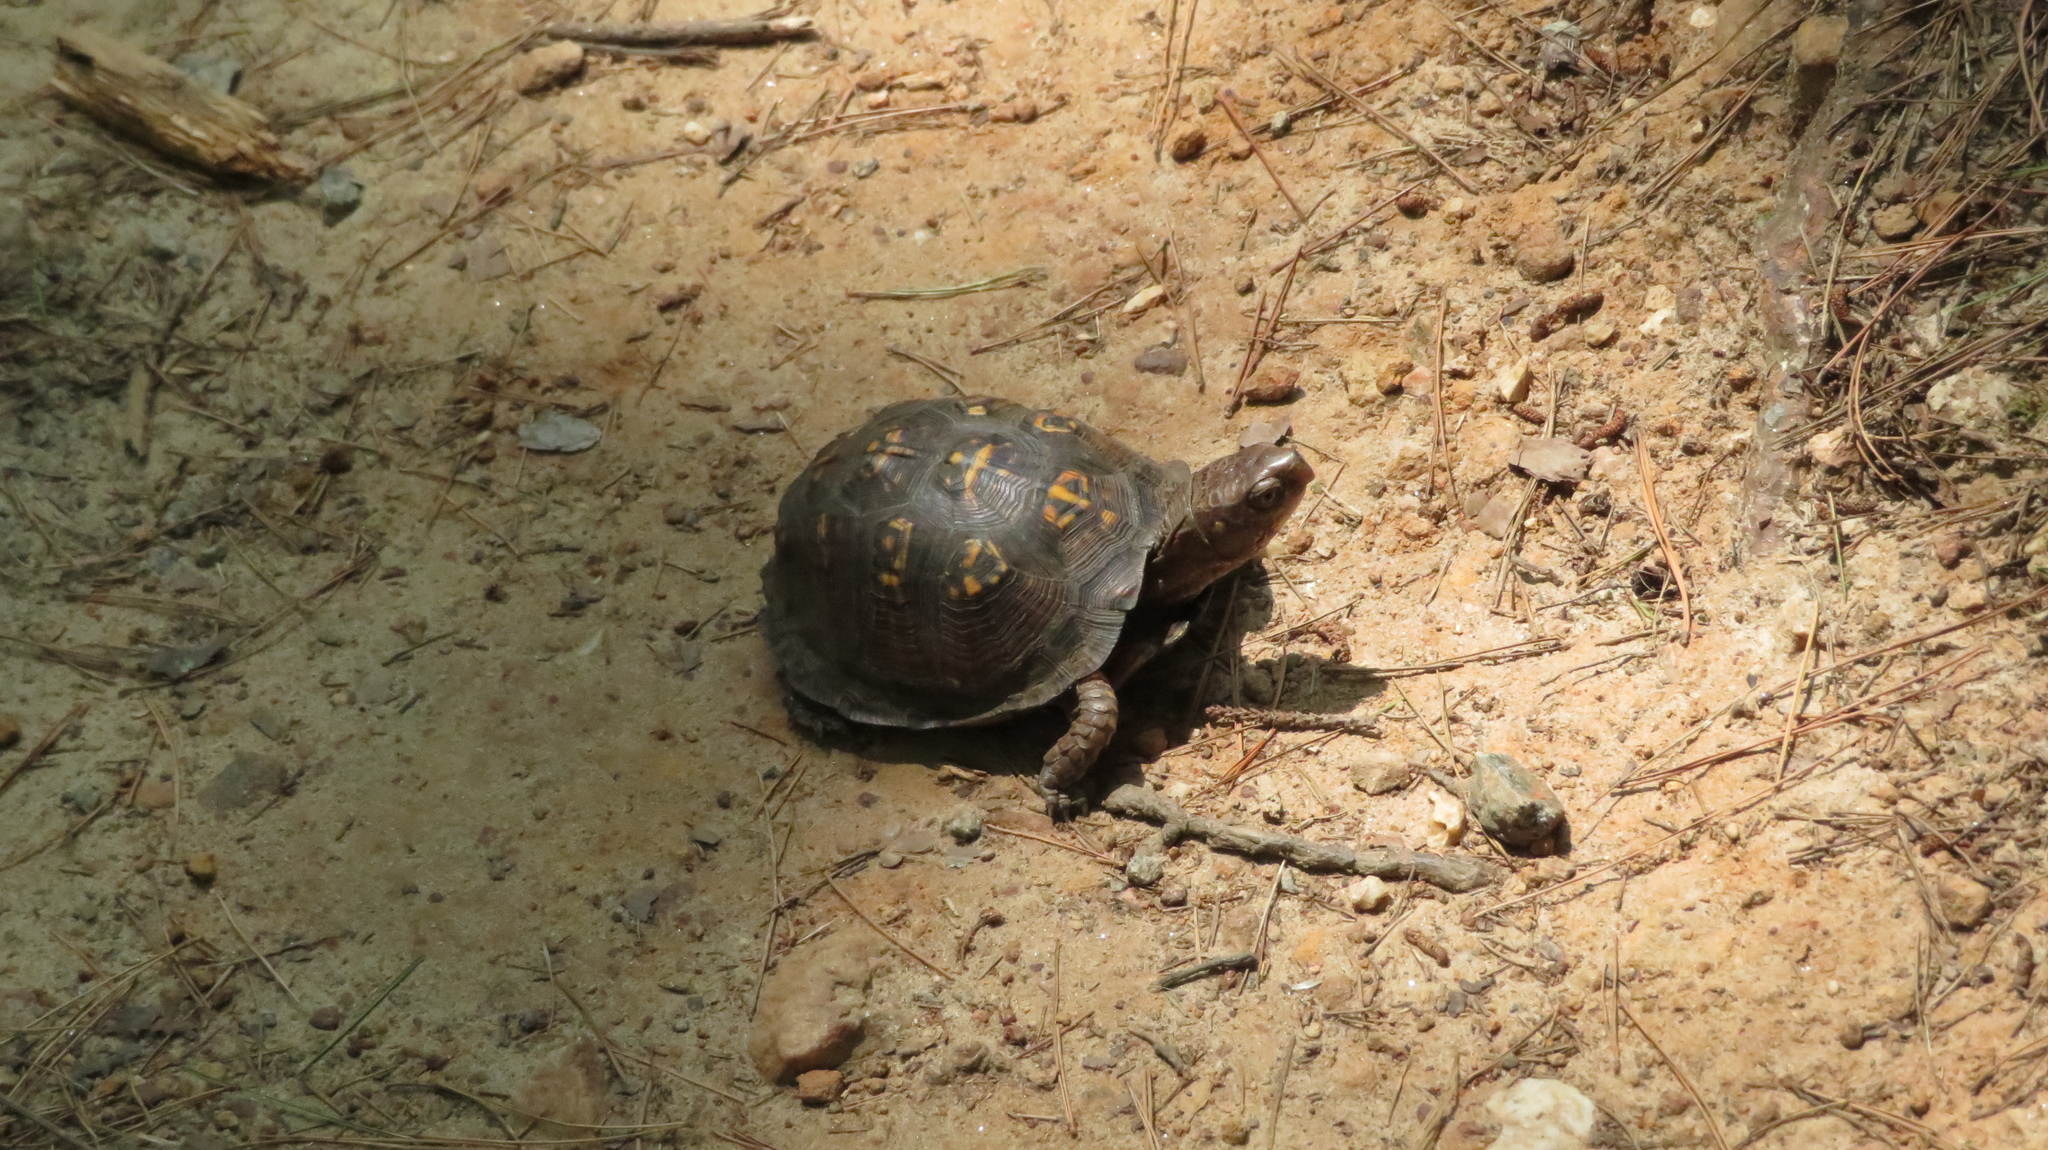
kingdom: Animalia
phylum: Chordata
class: Testudines
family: Emydidae
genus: Terrapene
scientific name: Terrapene carolina
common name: Common box turtle
